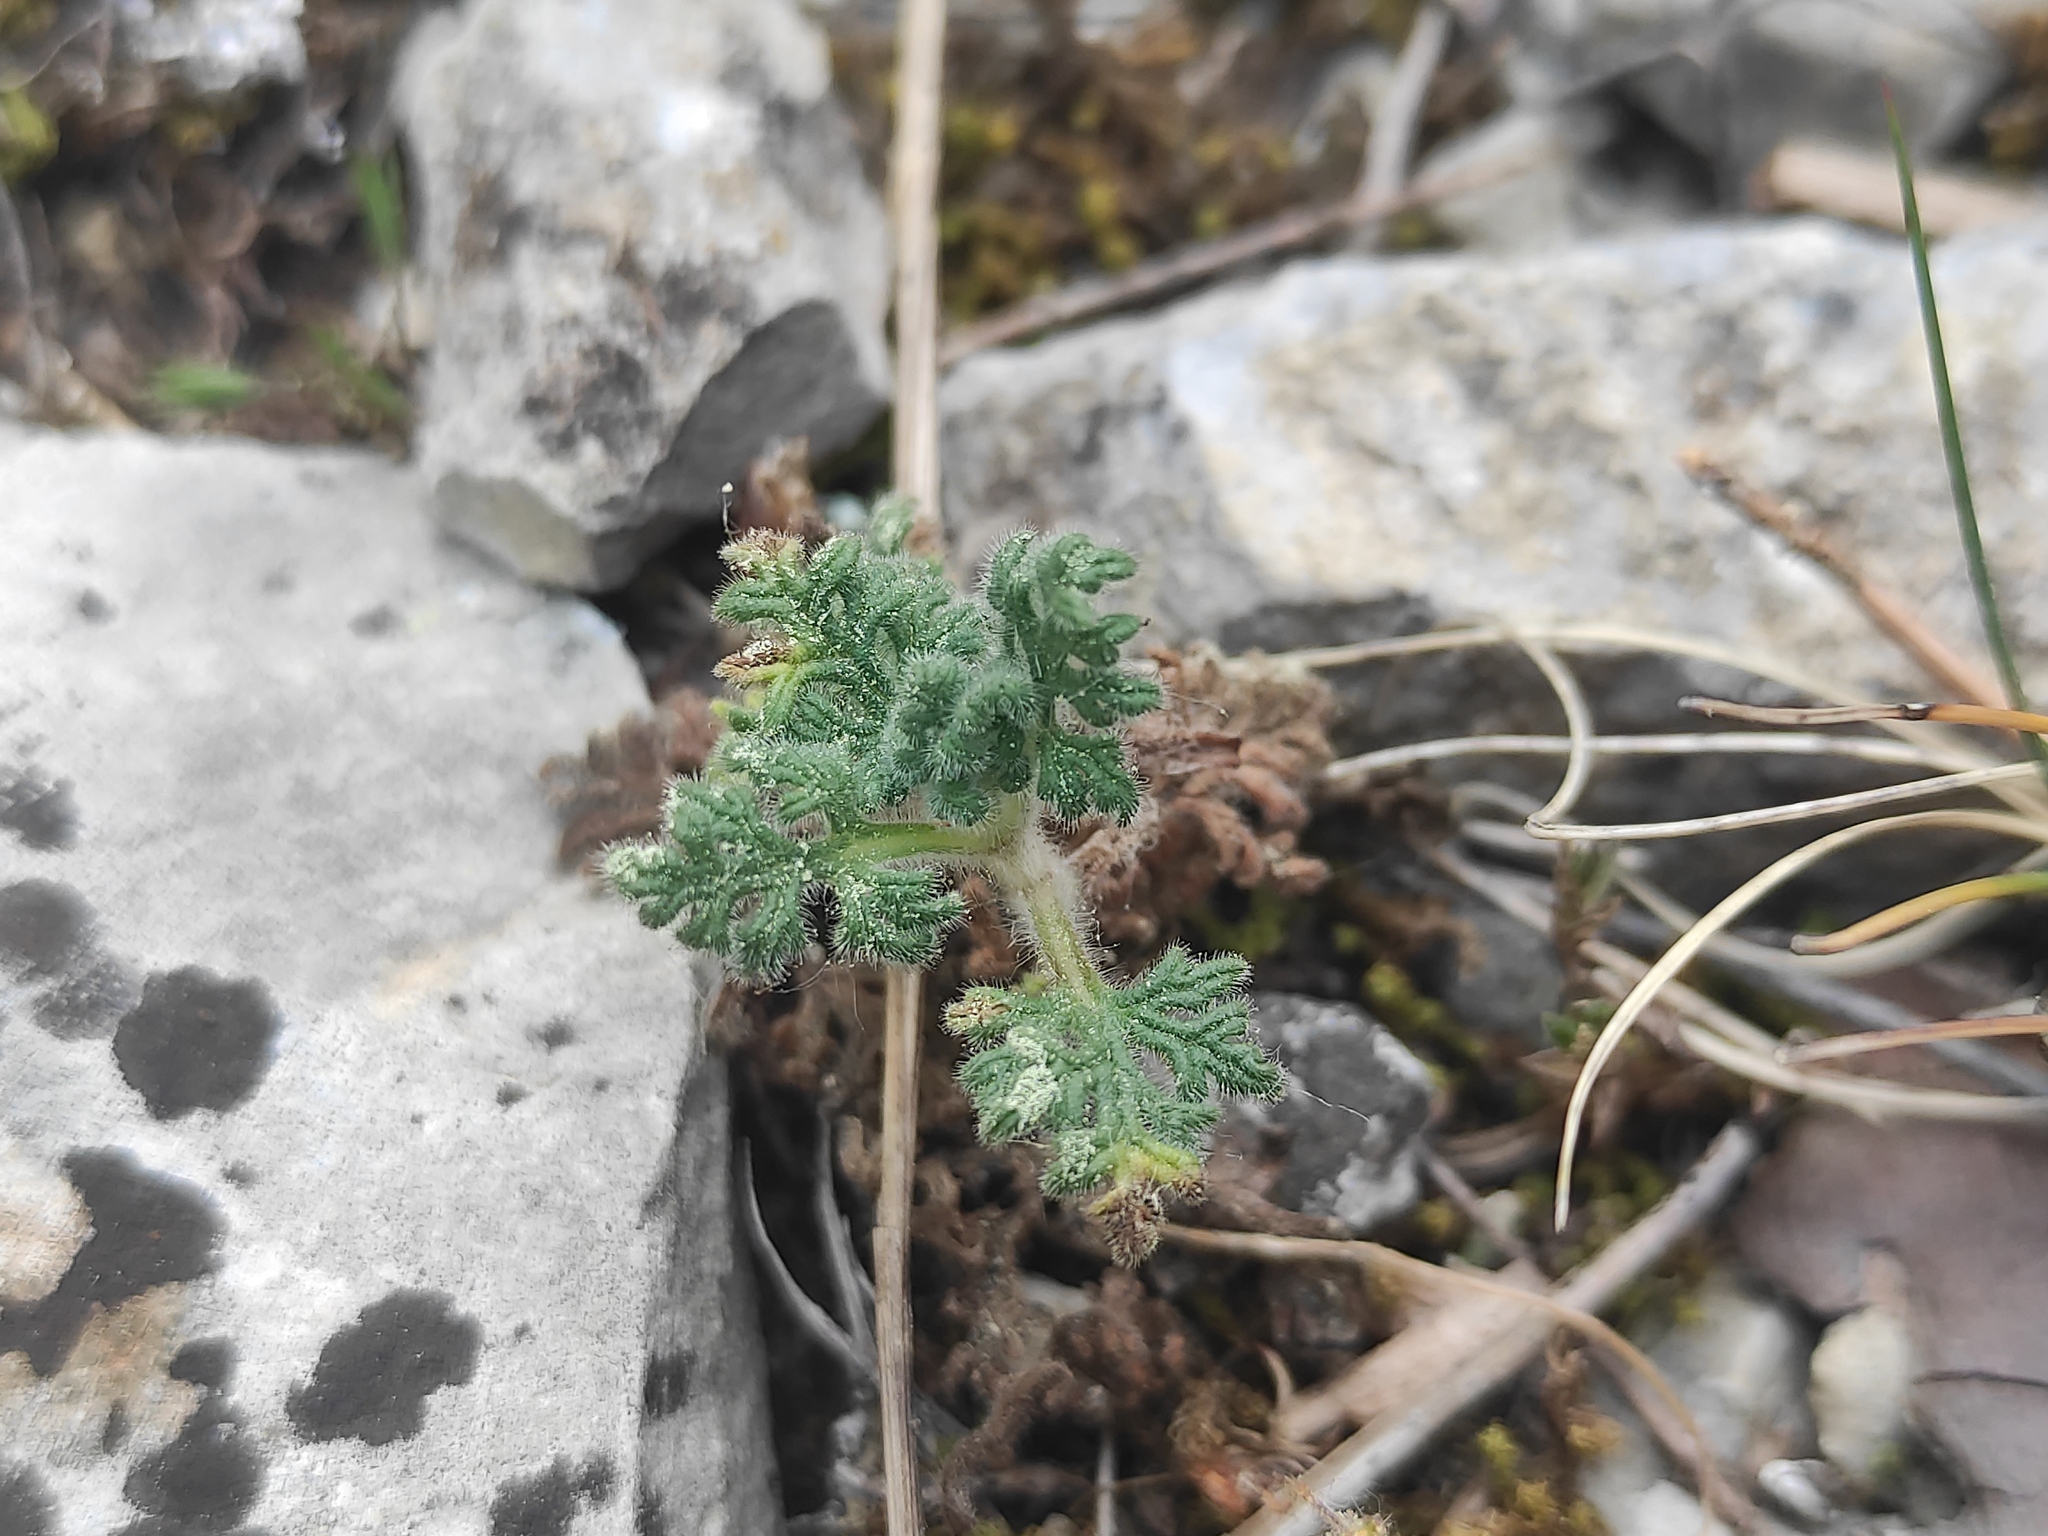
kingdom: Plantae
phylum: Tracheophyta
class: Magnoliopsida
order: Lamiales
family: Lamiaceae
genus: Teucrium
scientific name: Teucrium botrys
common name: Cut-leaved germander
